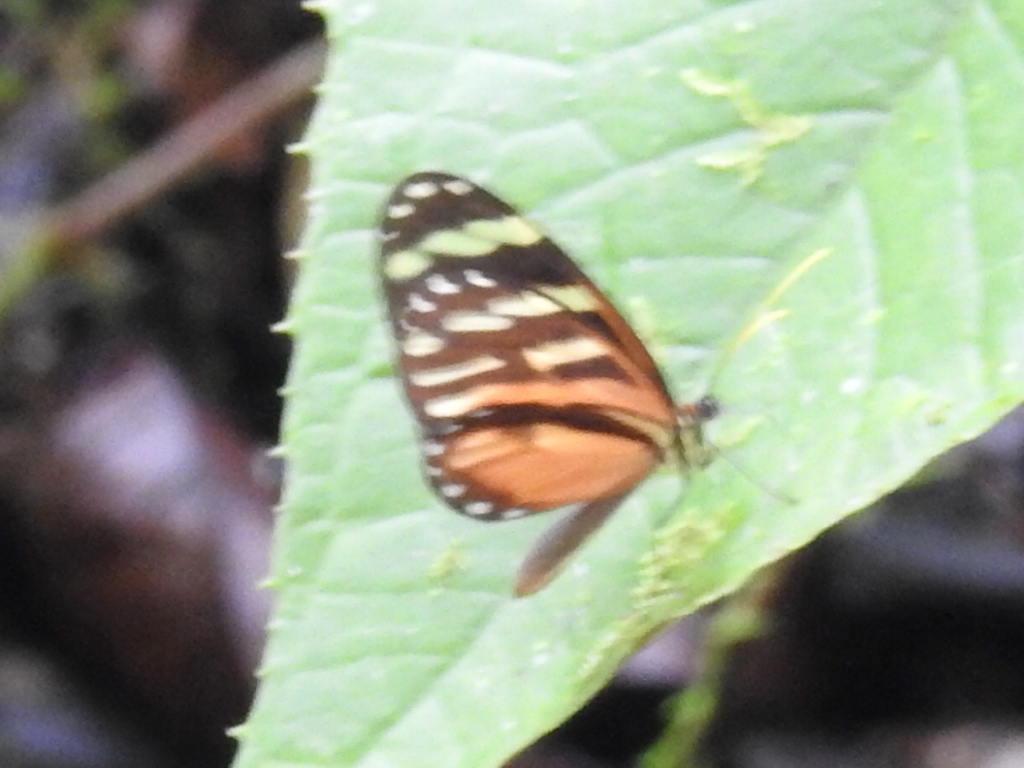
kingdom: Animalia
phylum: Arthropoda
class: Insecta
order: Lepidoptera
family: Nymphalidae
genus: Ithomia
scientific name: Ithomia heraldica
